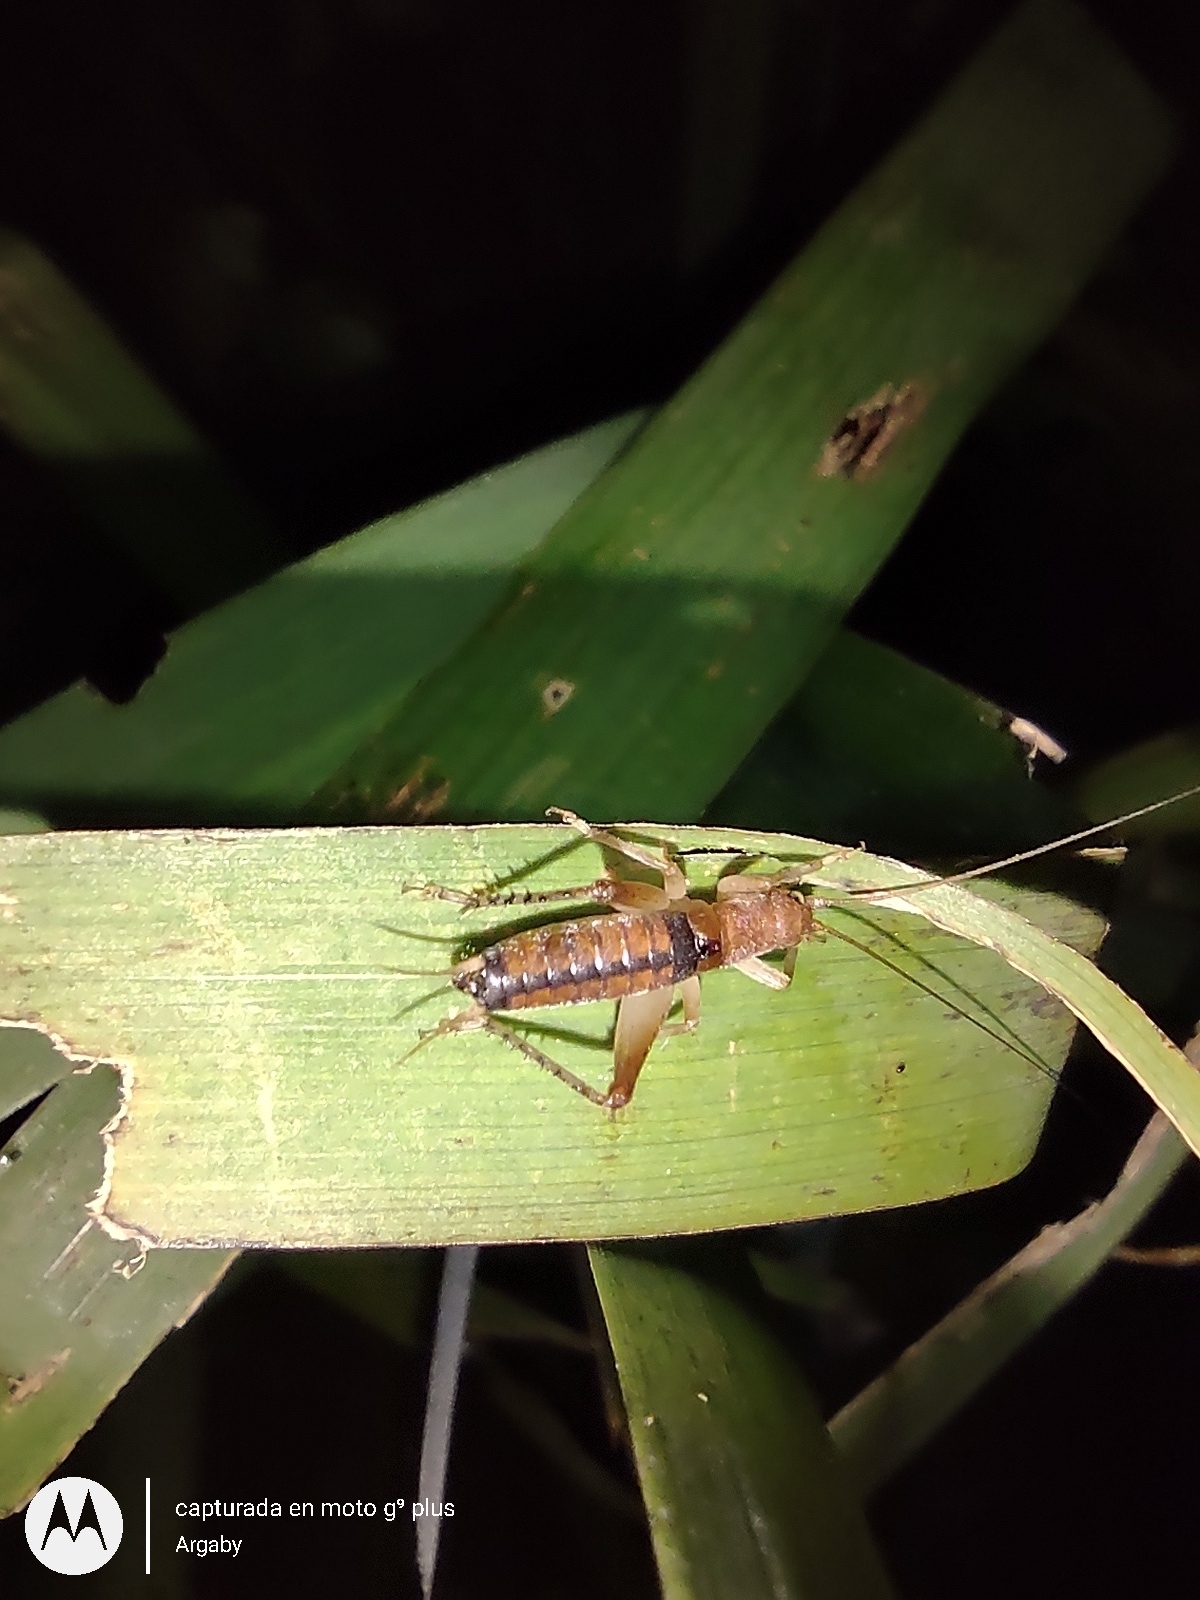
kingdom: Animalia
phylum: Arthropoda
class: Insecta
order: Orthoptera
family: Gryllidae
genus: Neometrypus
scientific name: Neometrypus aculeatus
